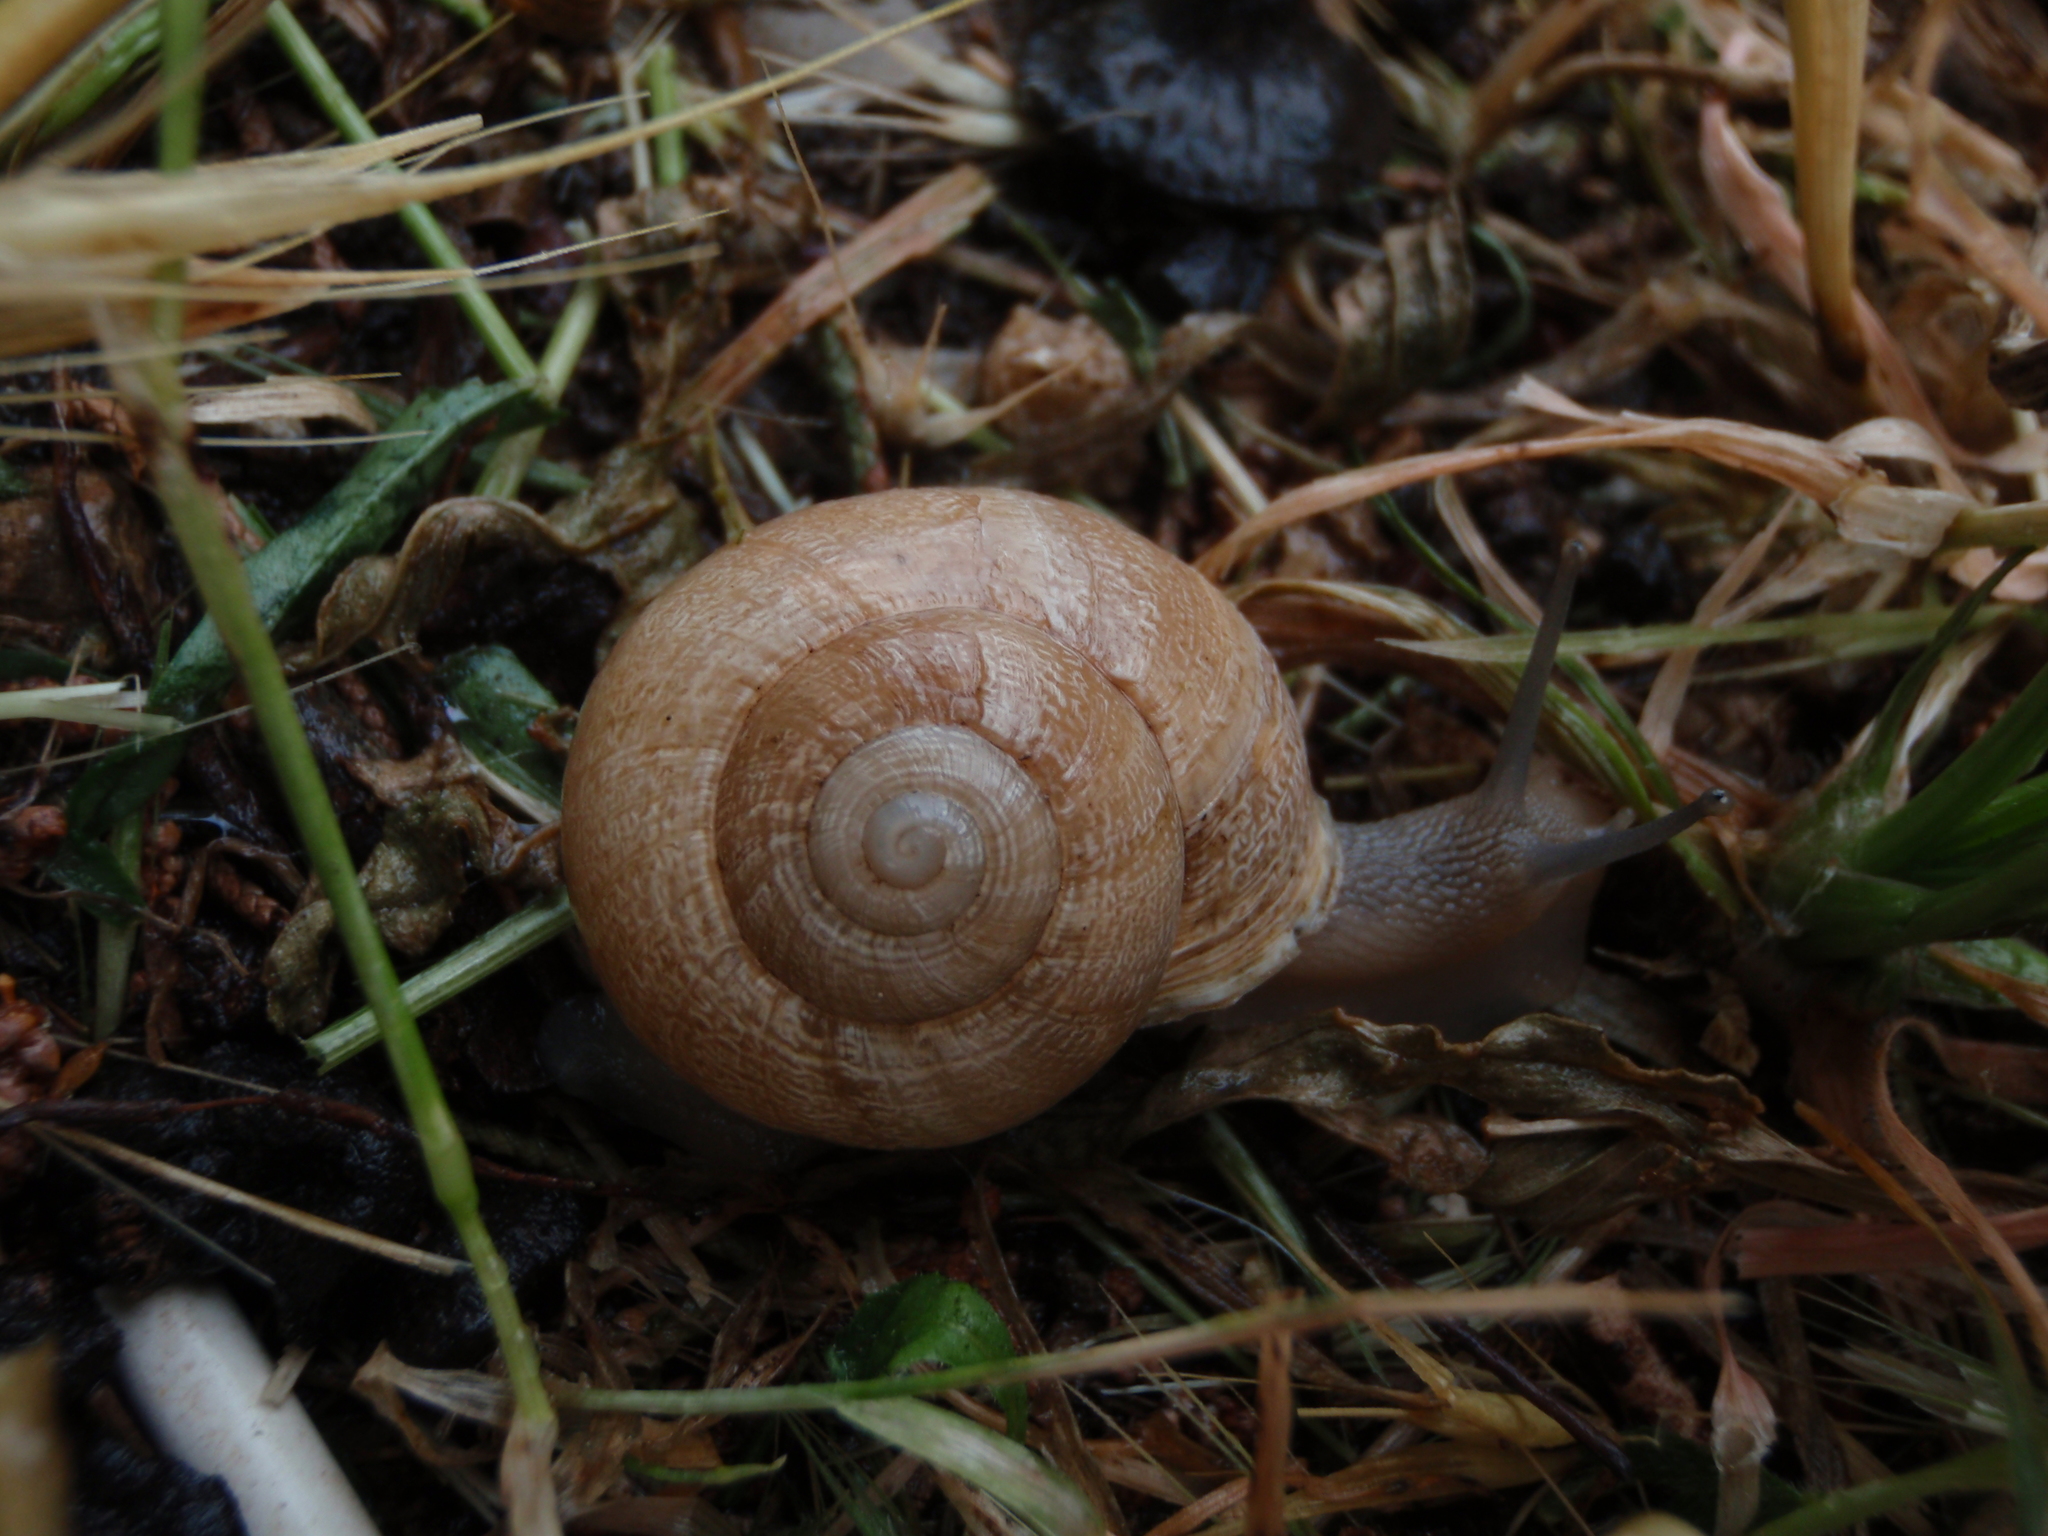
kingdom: Animalia
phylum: Mollusca
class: Gastropoda
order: Stylommatophora
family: Helicidae
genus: Eobania
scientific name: Eobania vermiculata
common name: Chocolateband snail
